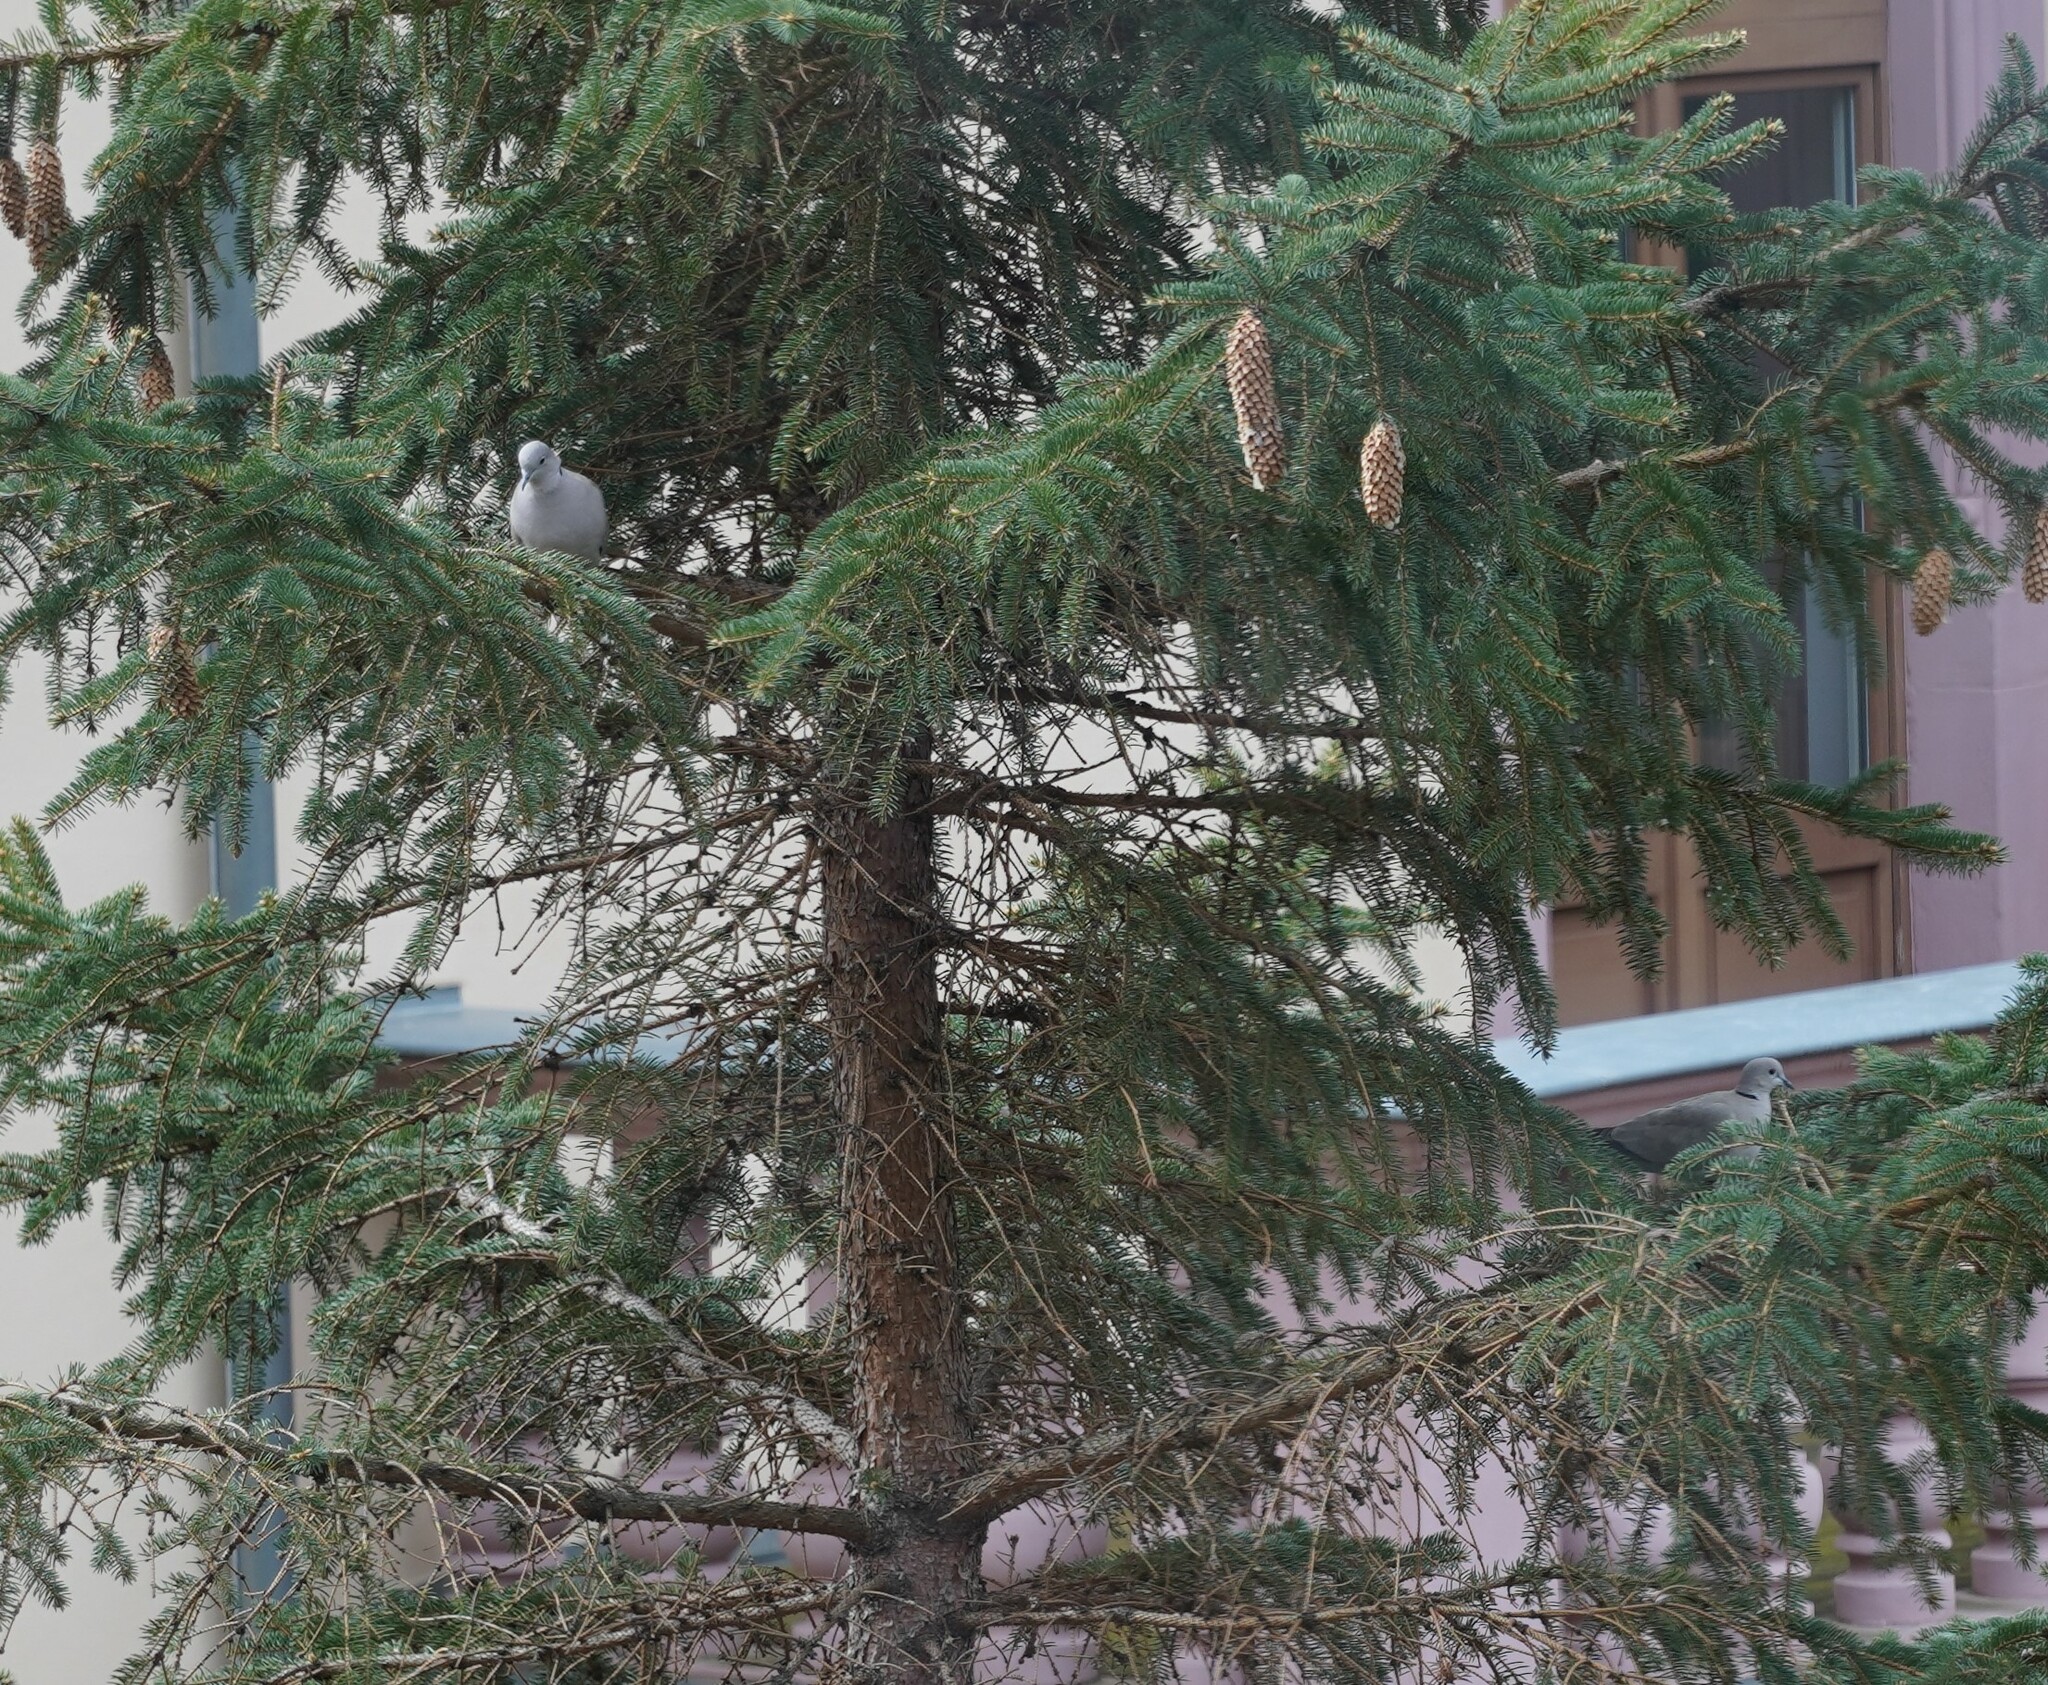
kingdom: Animalia
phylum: Chordata
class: Aves
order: Columbiformes
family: Columbidae
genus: Streptopelia
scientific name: Streptopelia decaocto
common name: Eurasian collared dove
